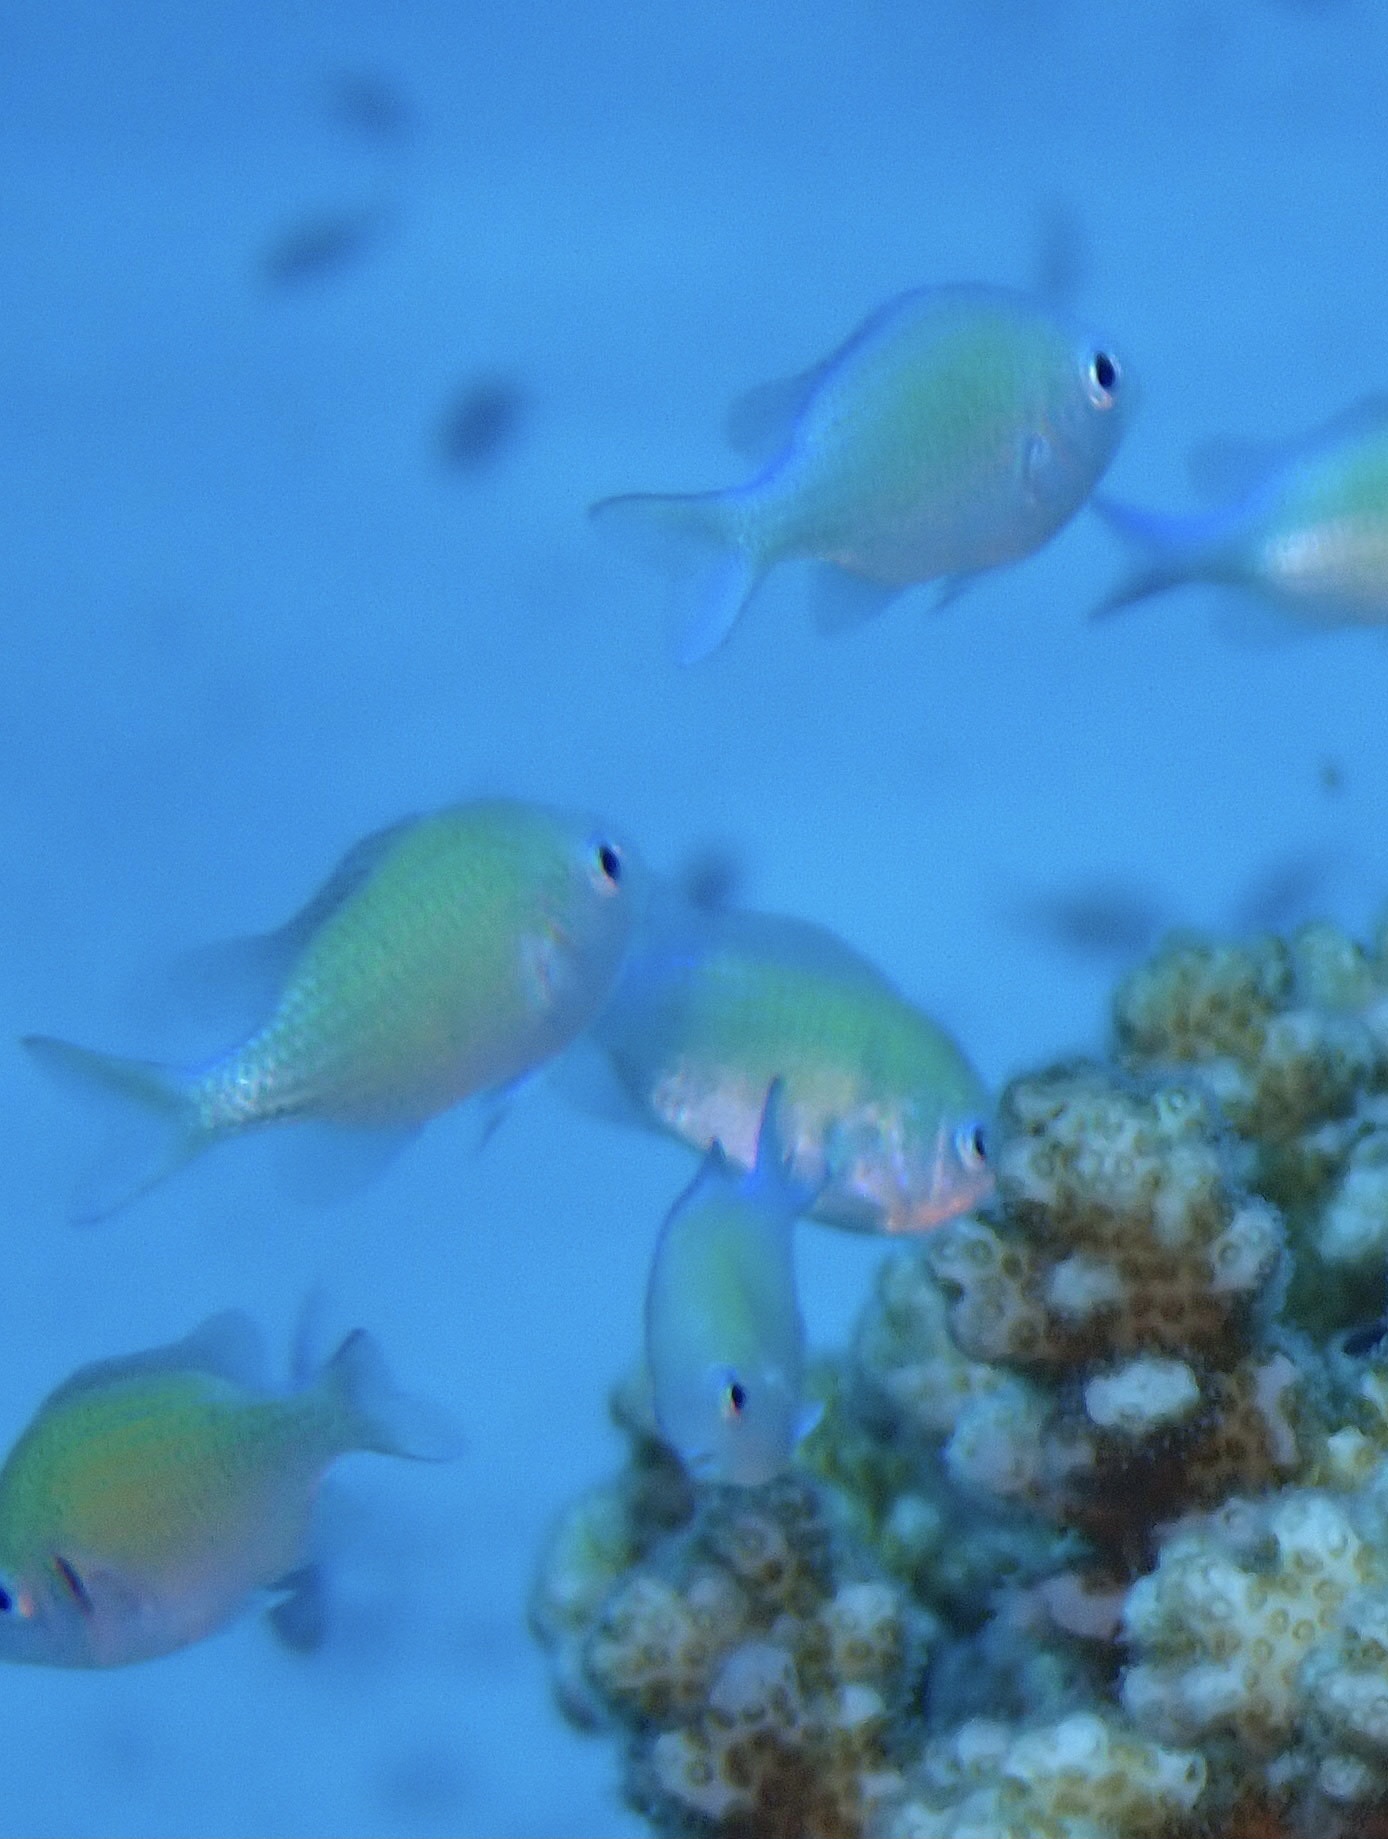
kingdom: Animalia
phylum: Chordata
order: Perciformes
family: Pomacentridae
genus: Chromis
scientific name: Chromis viridis
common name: Blue-green chromis
